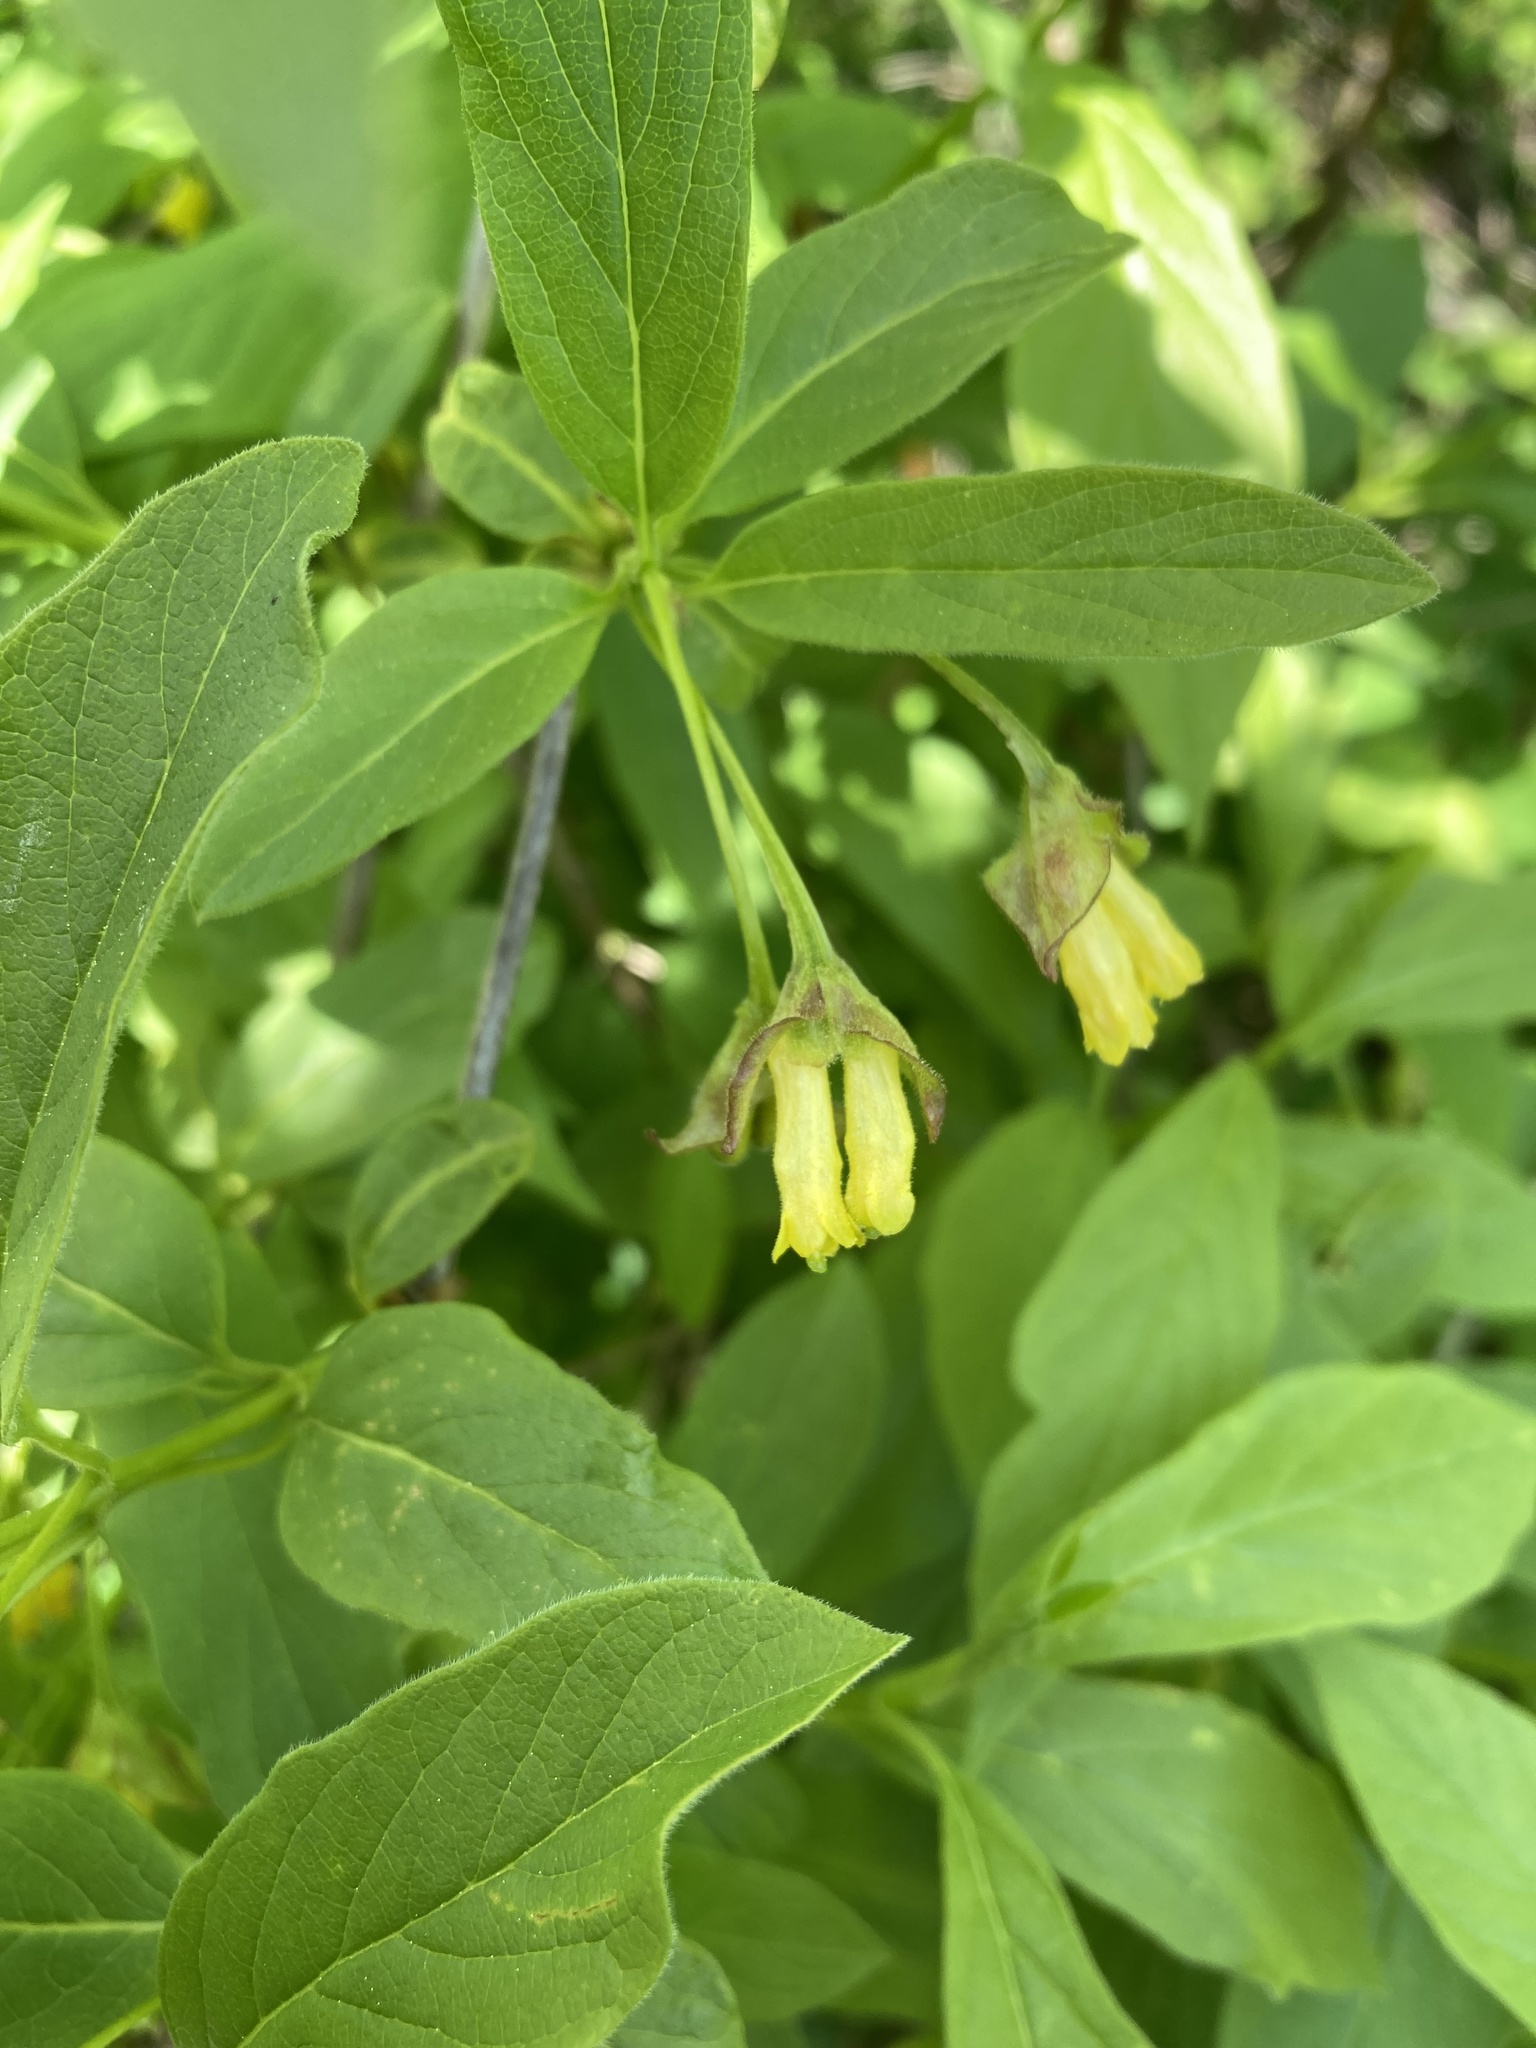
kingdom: Plantae
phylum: Tracheophyta
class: Magnoliopsida
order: Dipsacales
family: Caprifoliaceae
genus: Lonicera
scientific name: Lonicera involucrata
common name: Californian honeysuckle
